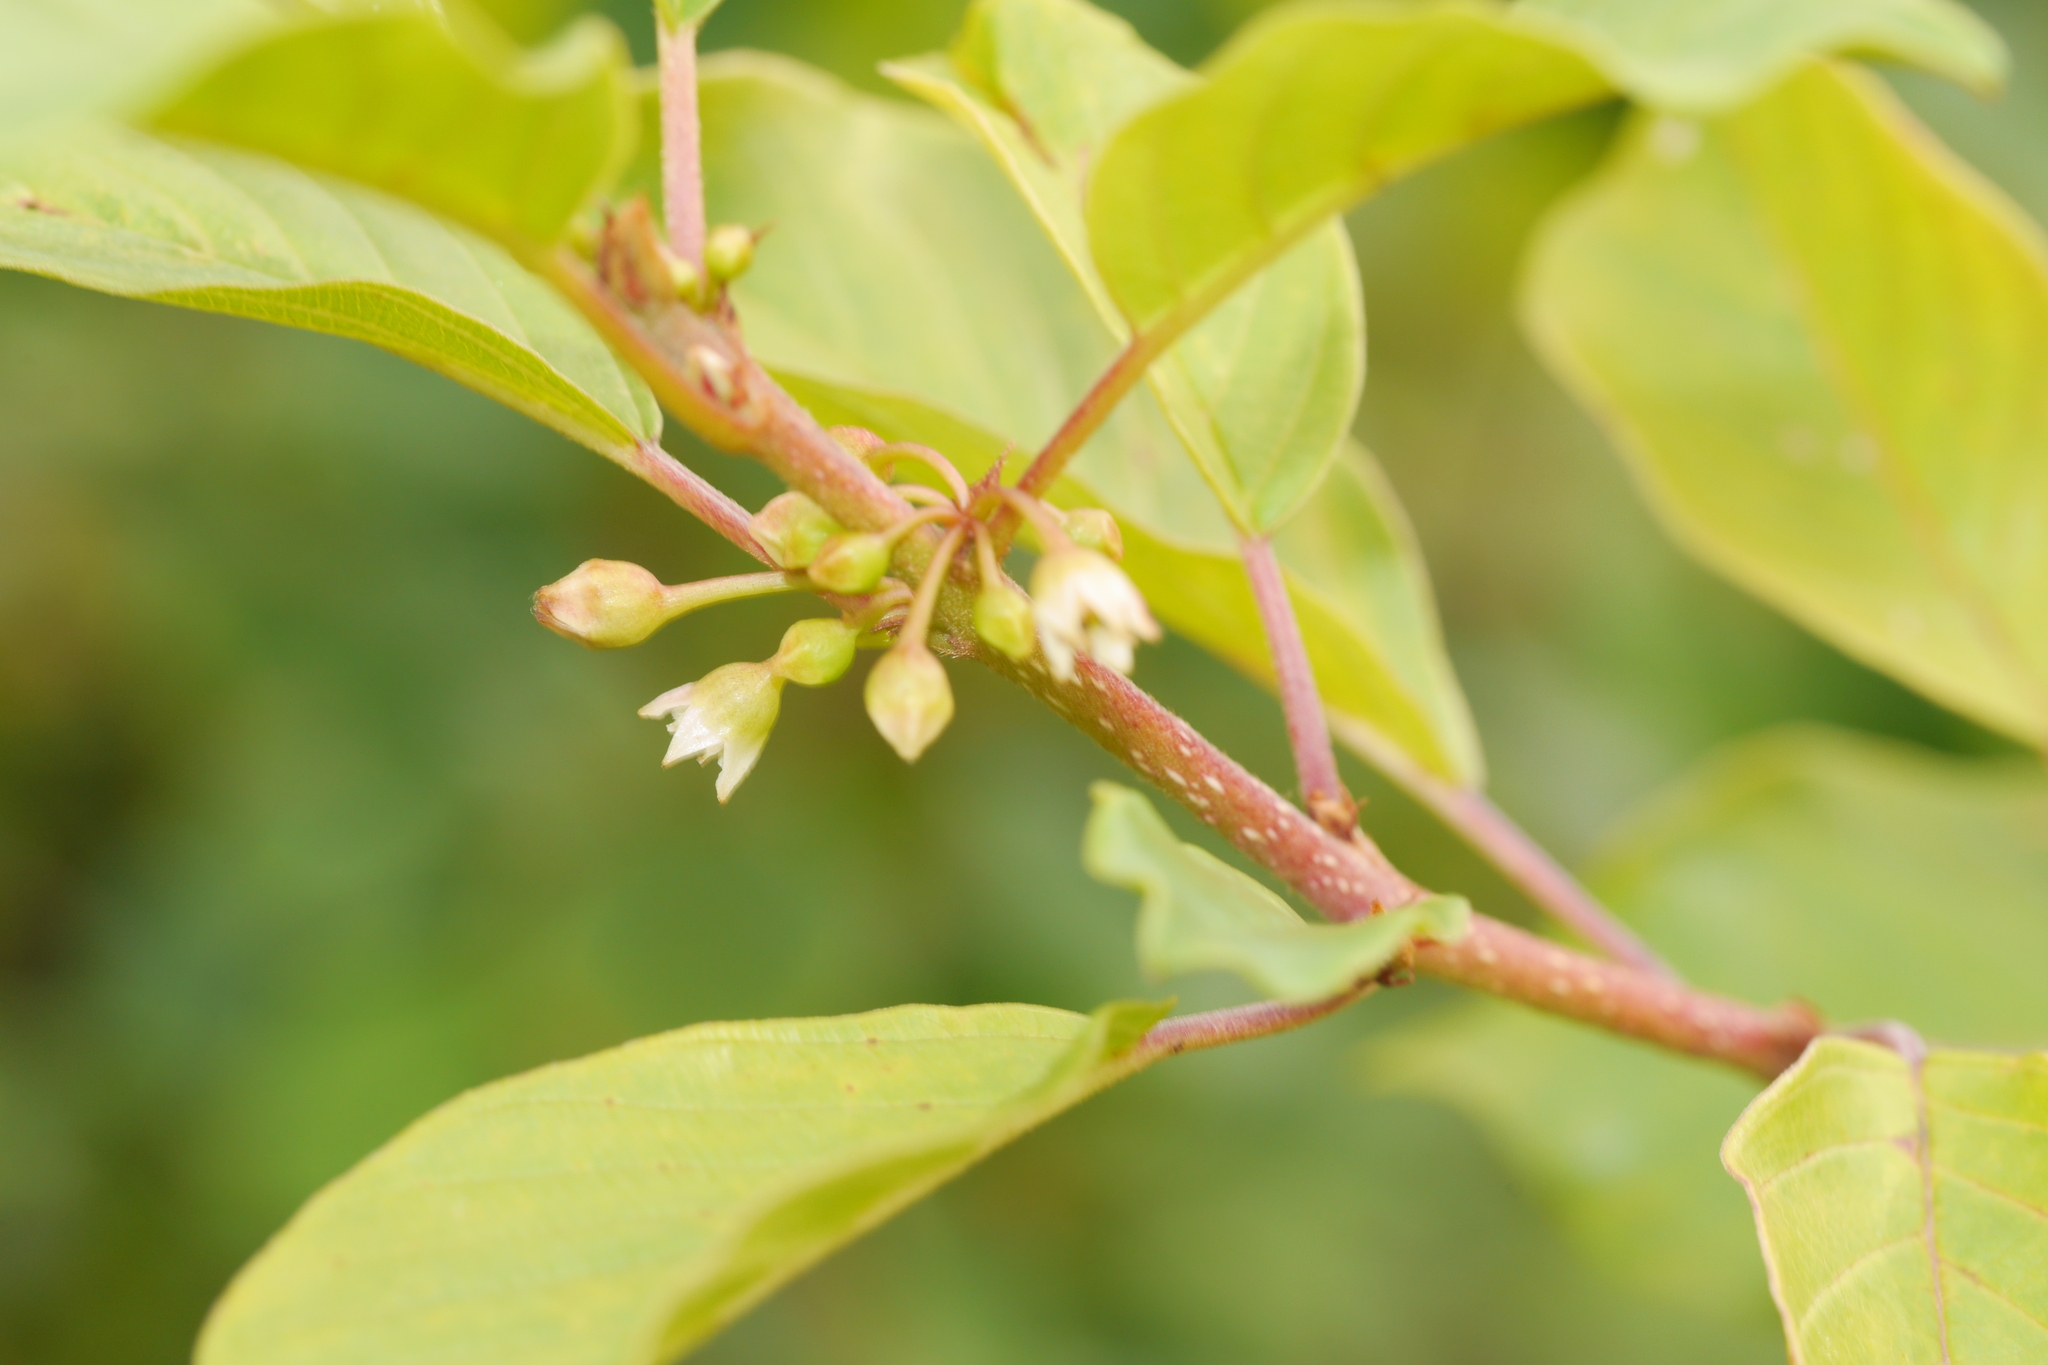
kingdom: Plantae
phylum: Tracheophyta
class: Magnoliopsida
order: Rosales
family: Rhamnaceae
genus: Frangula
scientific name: Frangula alnus
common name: Alder buckthorn
